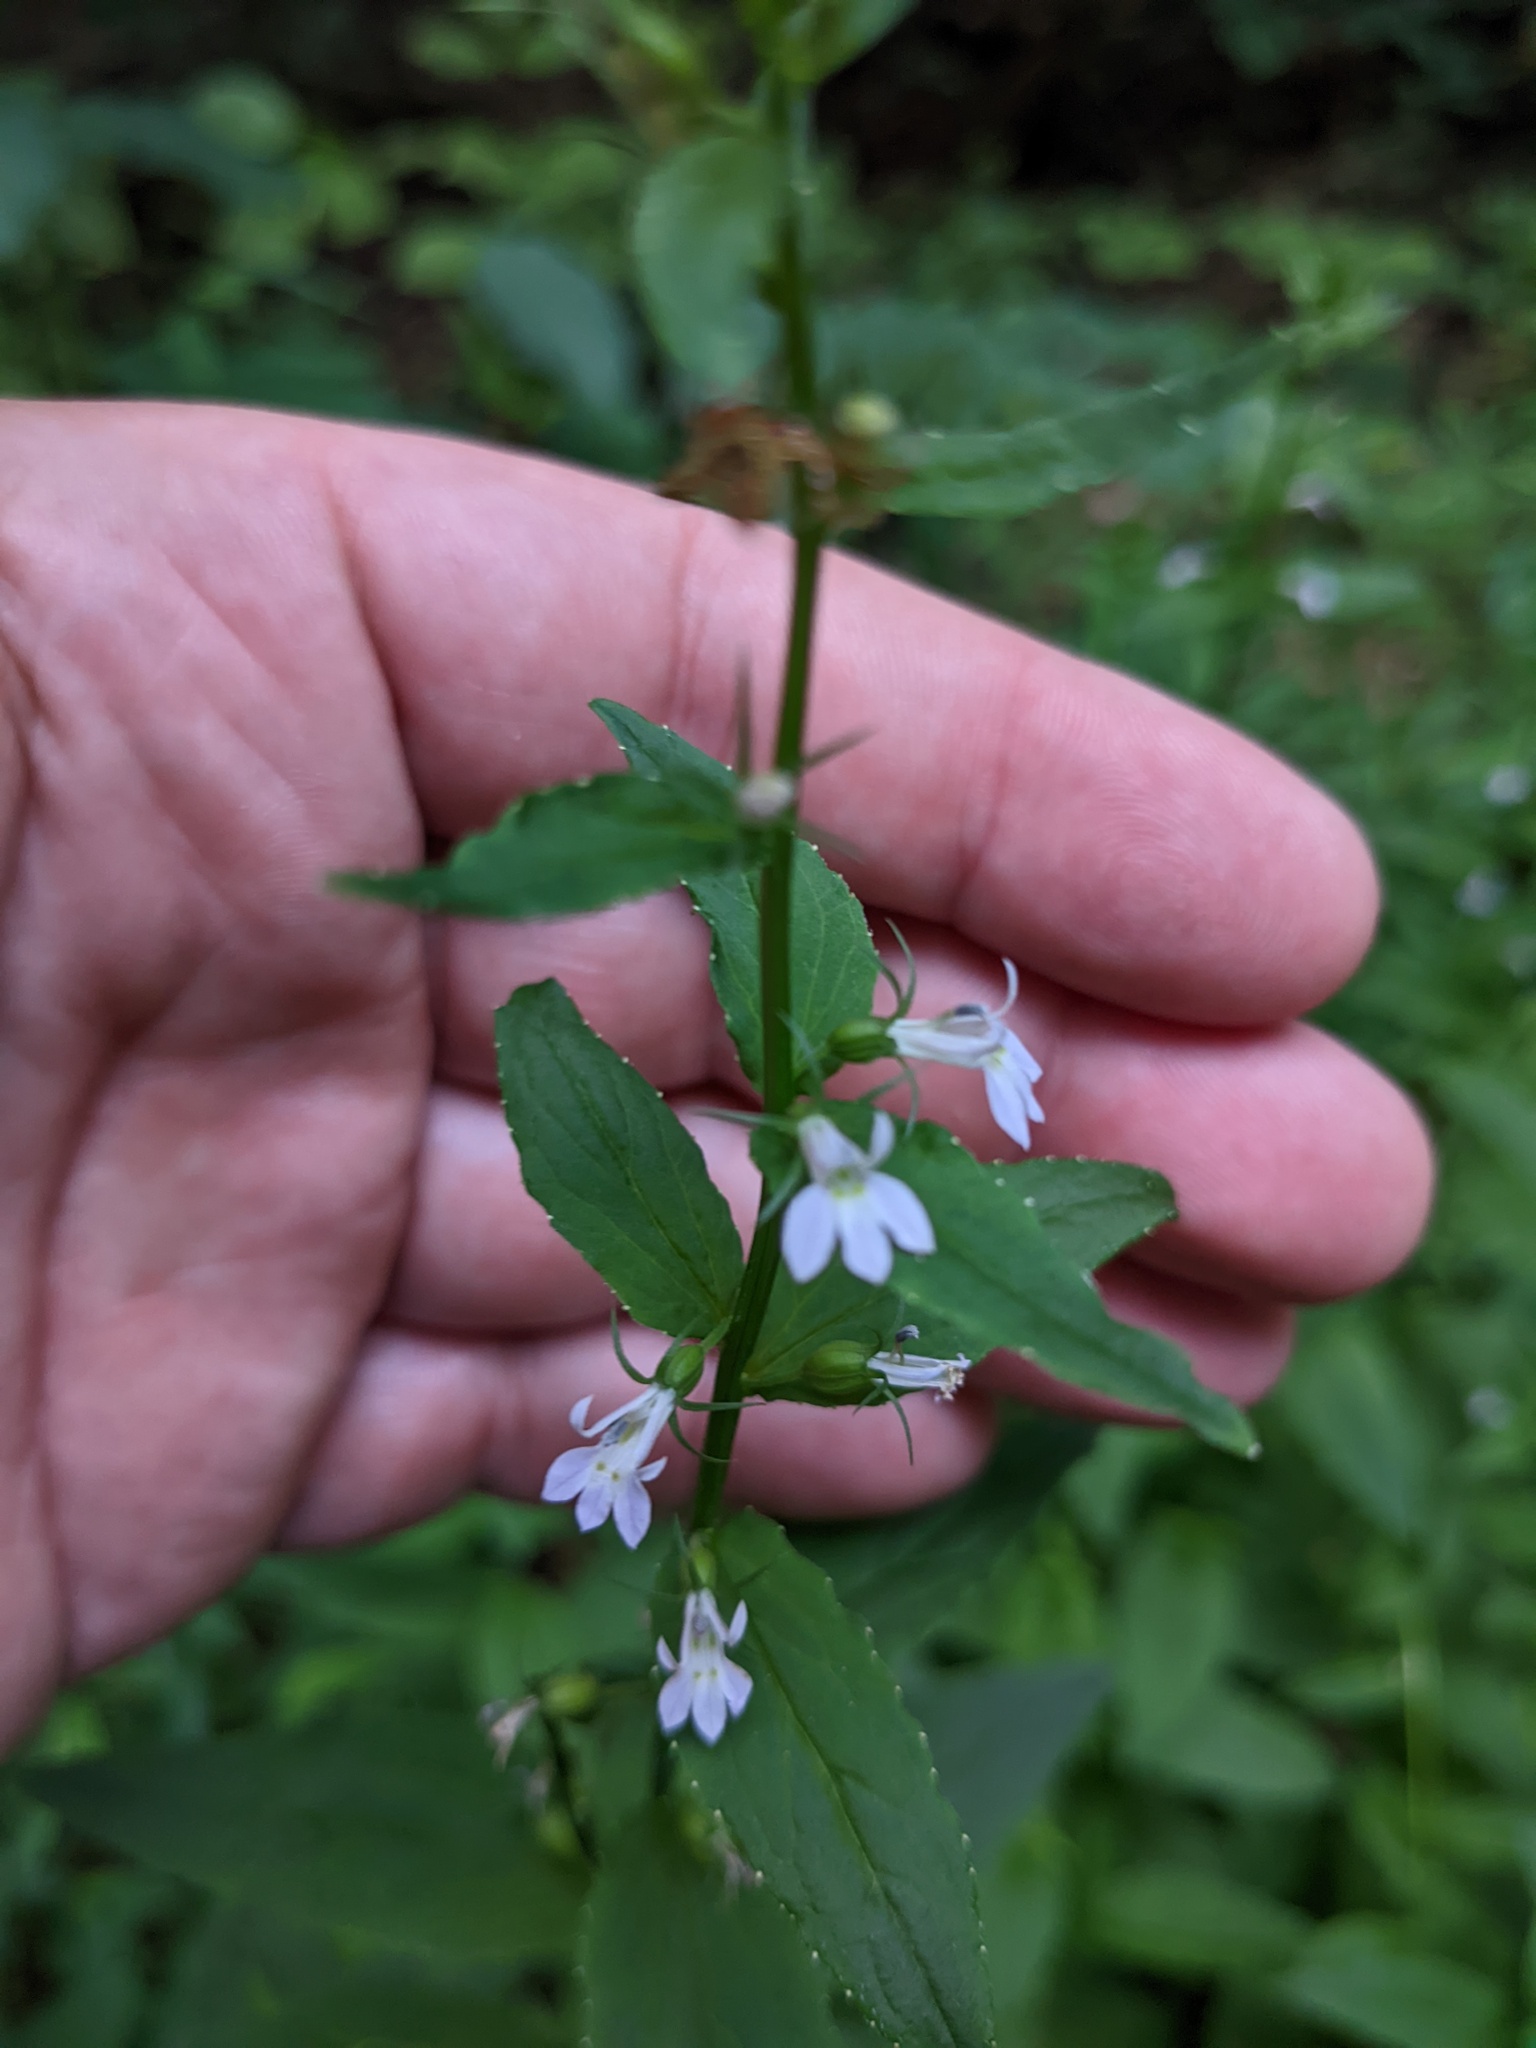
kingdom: Plantae
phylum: Tracheophyta
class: Magnoliopsida
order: Asterales
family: Campanulaceae
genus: Lobelia
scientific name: Lobelia inflata
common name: Indian tobacco
